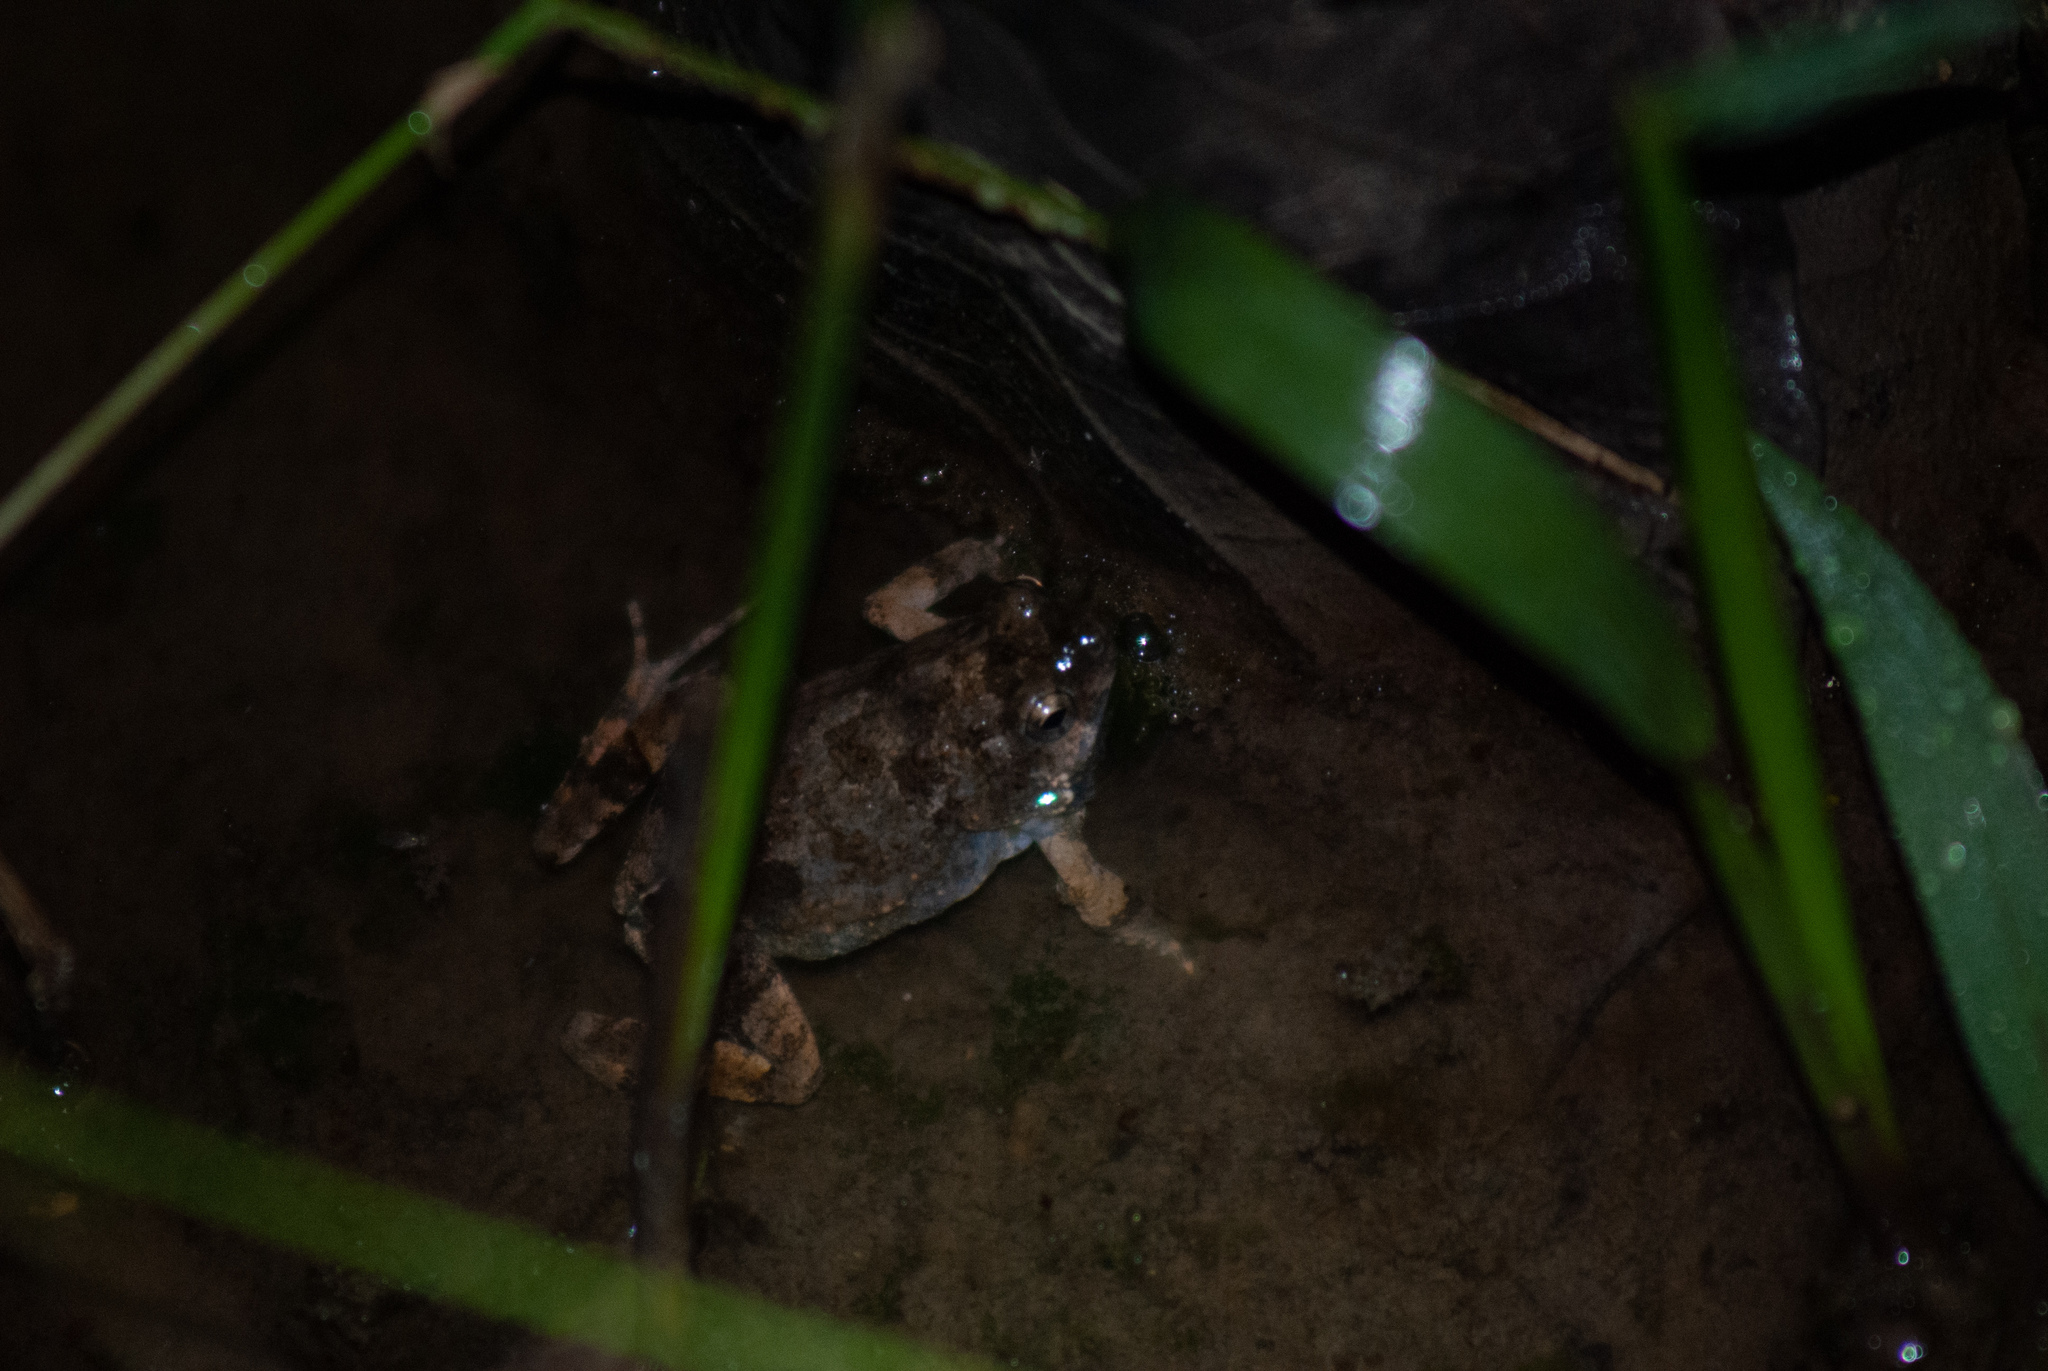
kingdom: Animalia
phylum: Chordata
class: Amphibia
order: Anura
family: Leptodactylidae
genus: Engystomops
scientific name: Engystomops pustulosus
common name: Tungara frog
